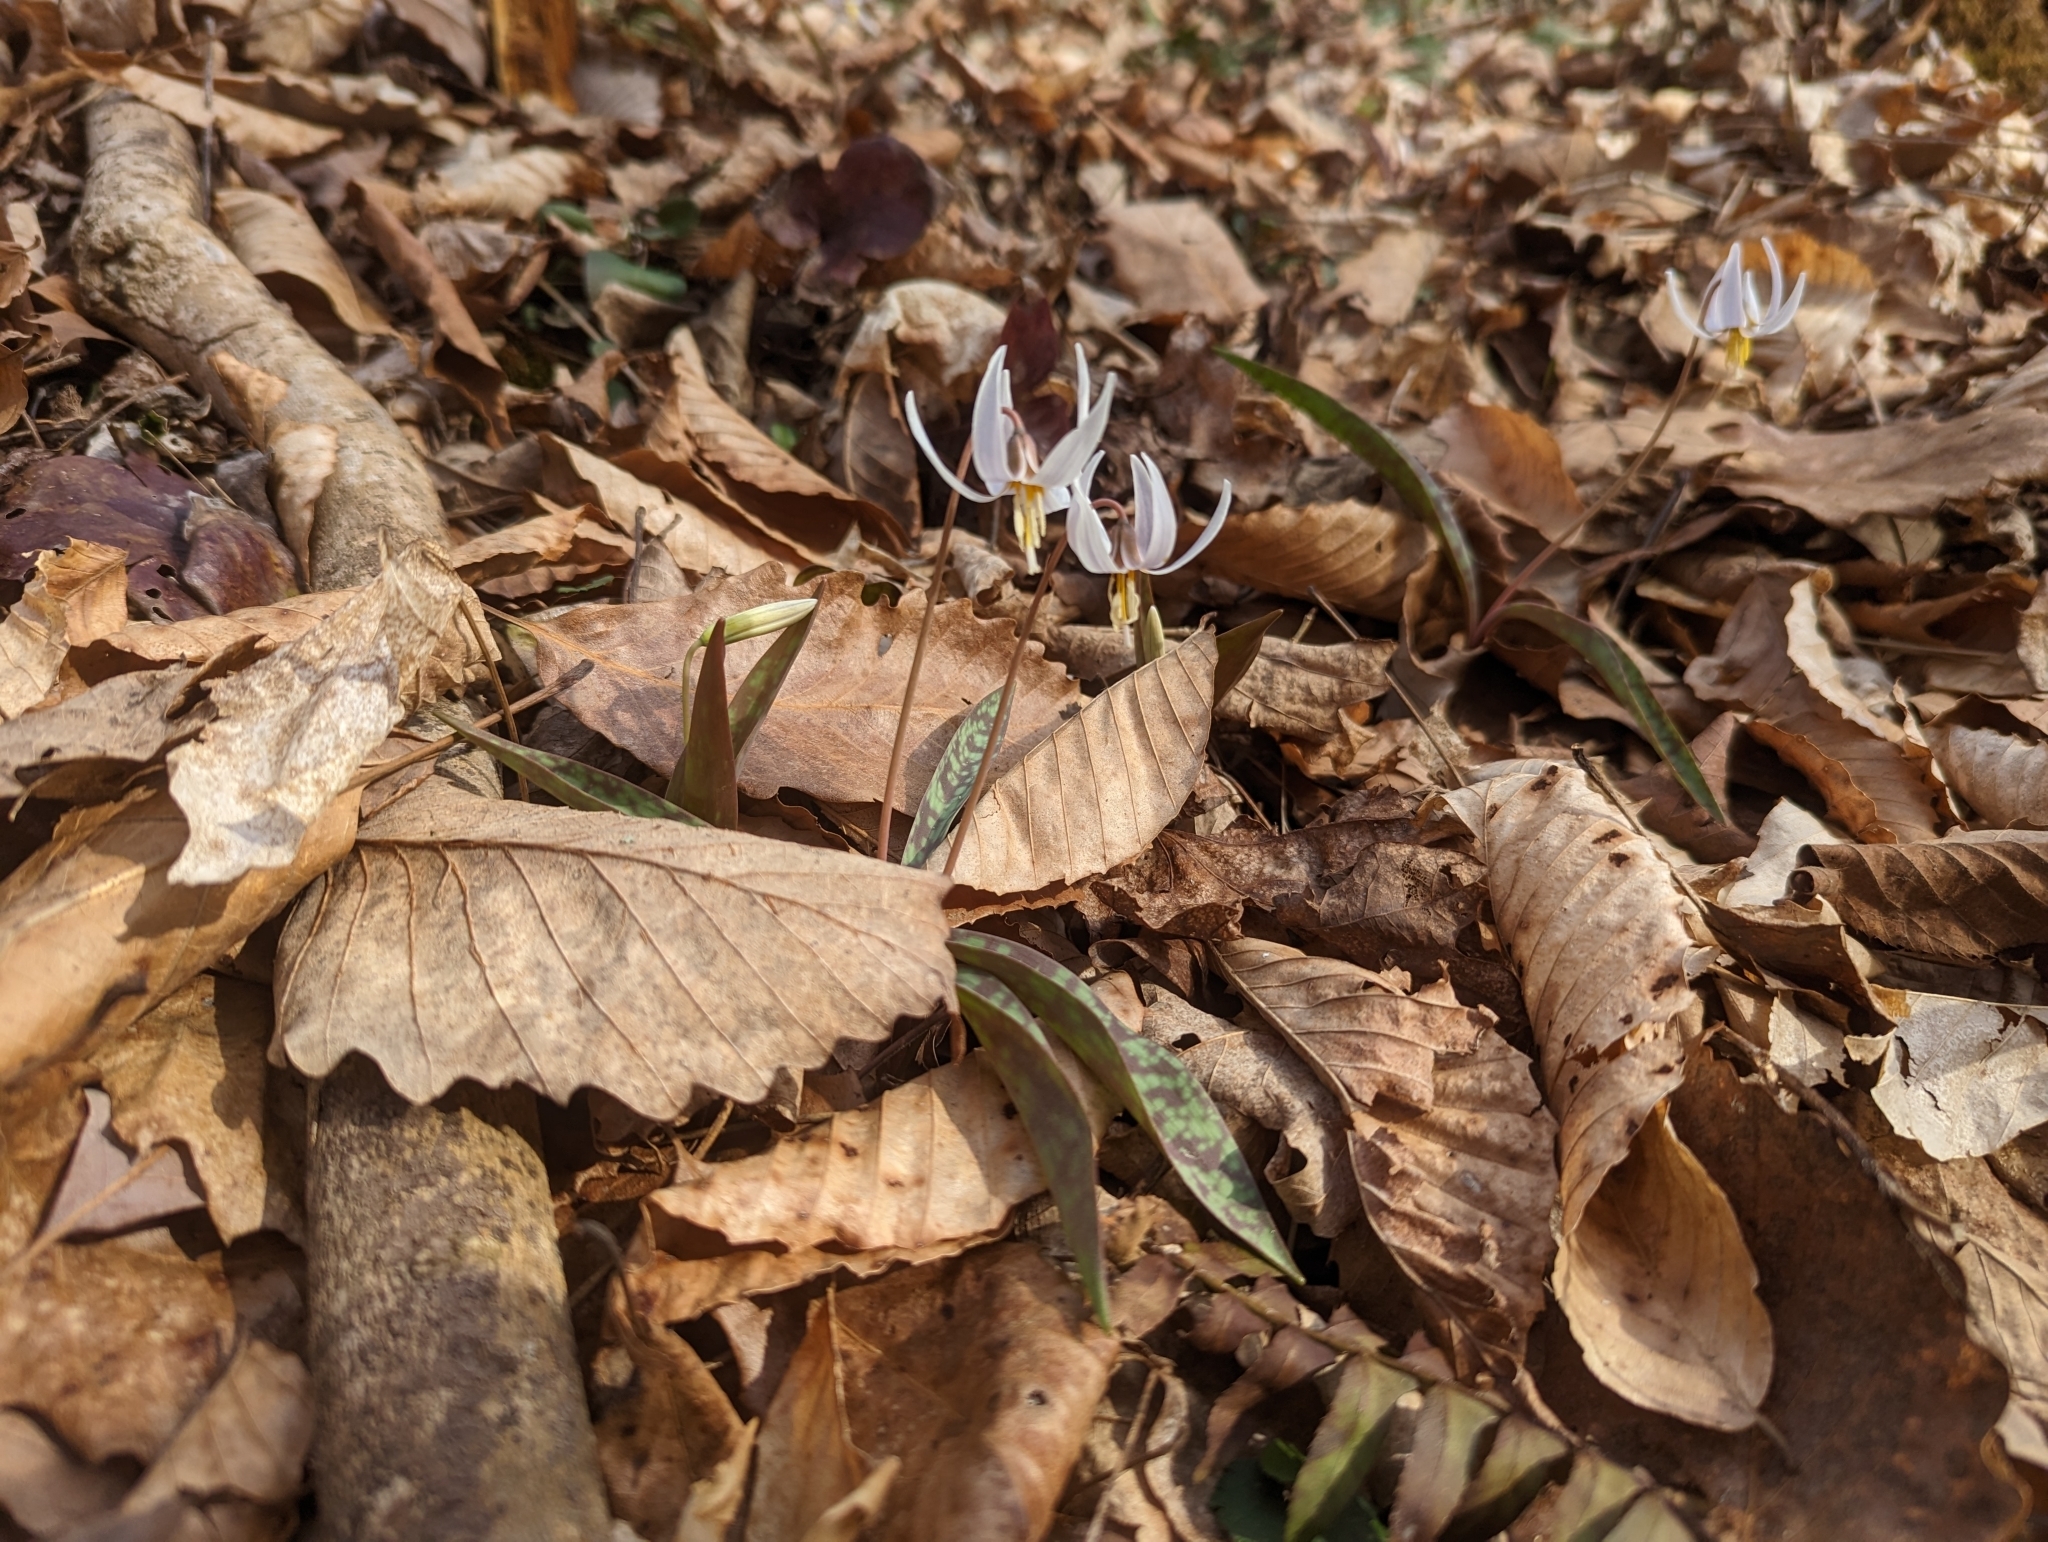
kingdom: Plantae
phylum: Tracheophyta
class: Liliopsida
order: Liliales
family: Liliaceae
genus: Erythronium
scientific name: Erythronium albidum
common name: White trout-lily
